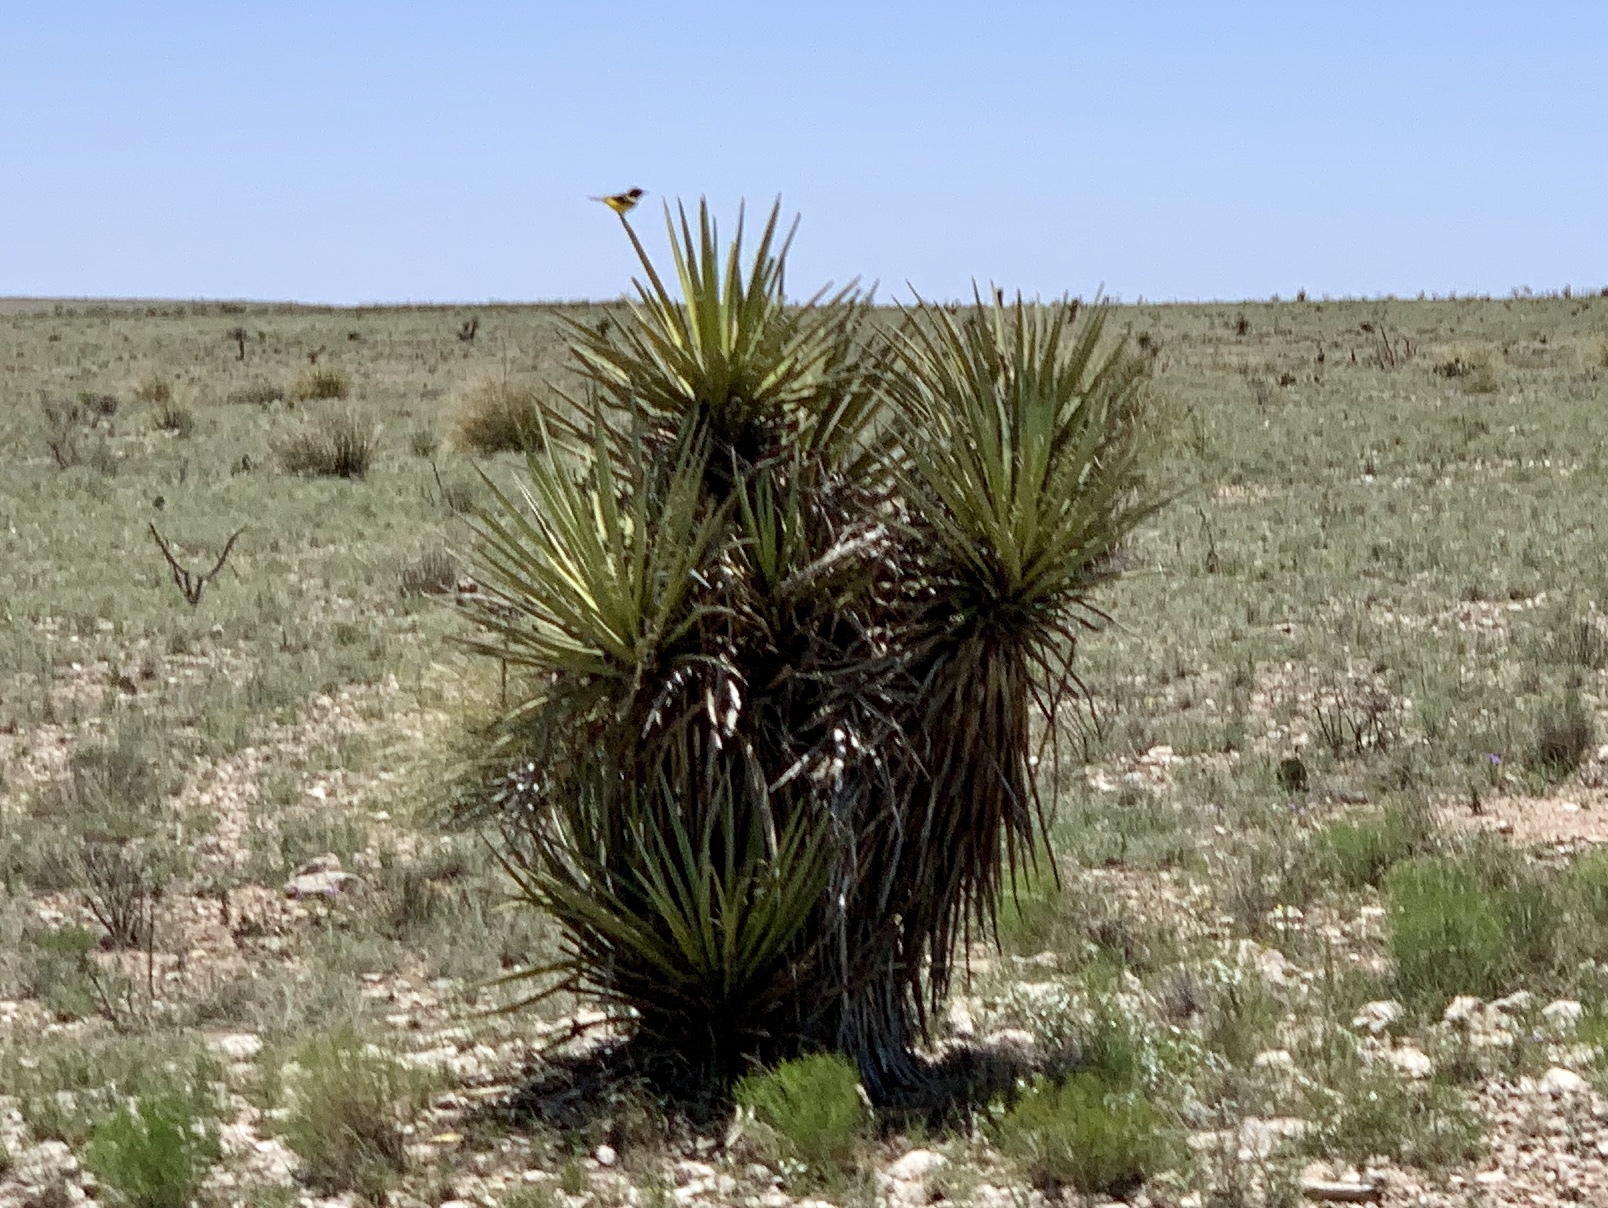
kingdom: Plantae
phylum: Tracheophyta
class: Liliopsida
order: Asparagales
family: Asparagaceae
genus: Yucca
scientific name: Yucca treculiana
